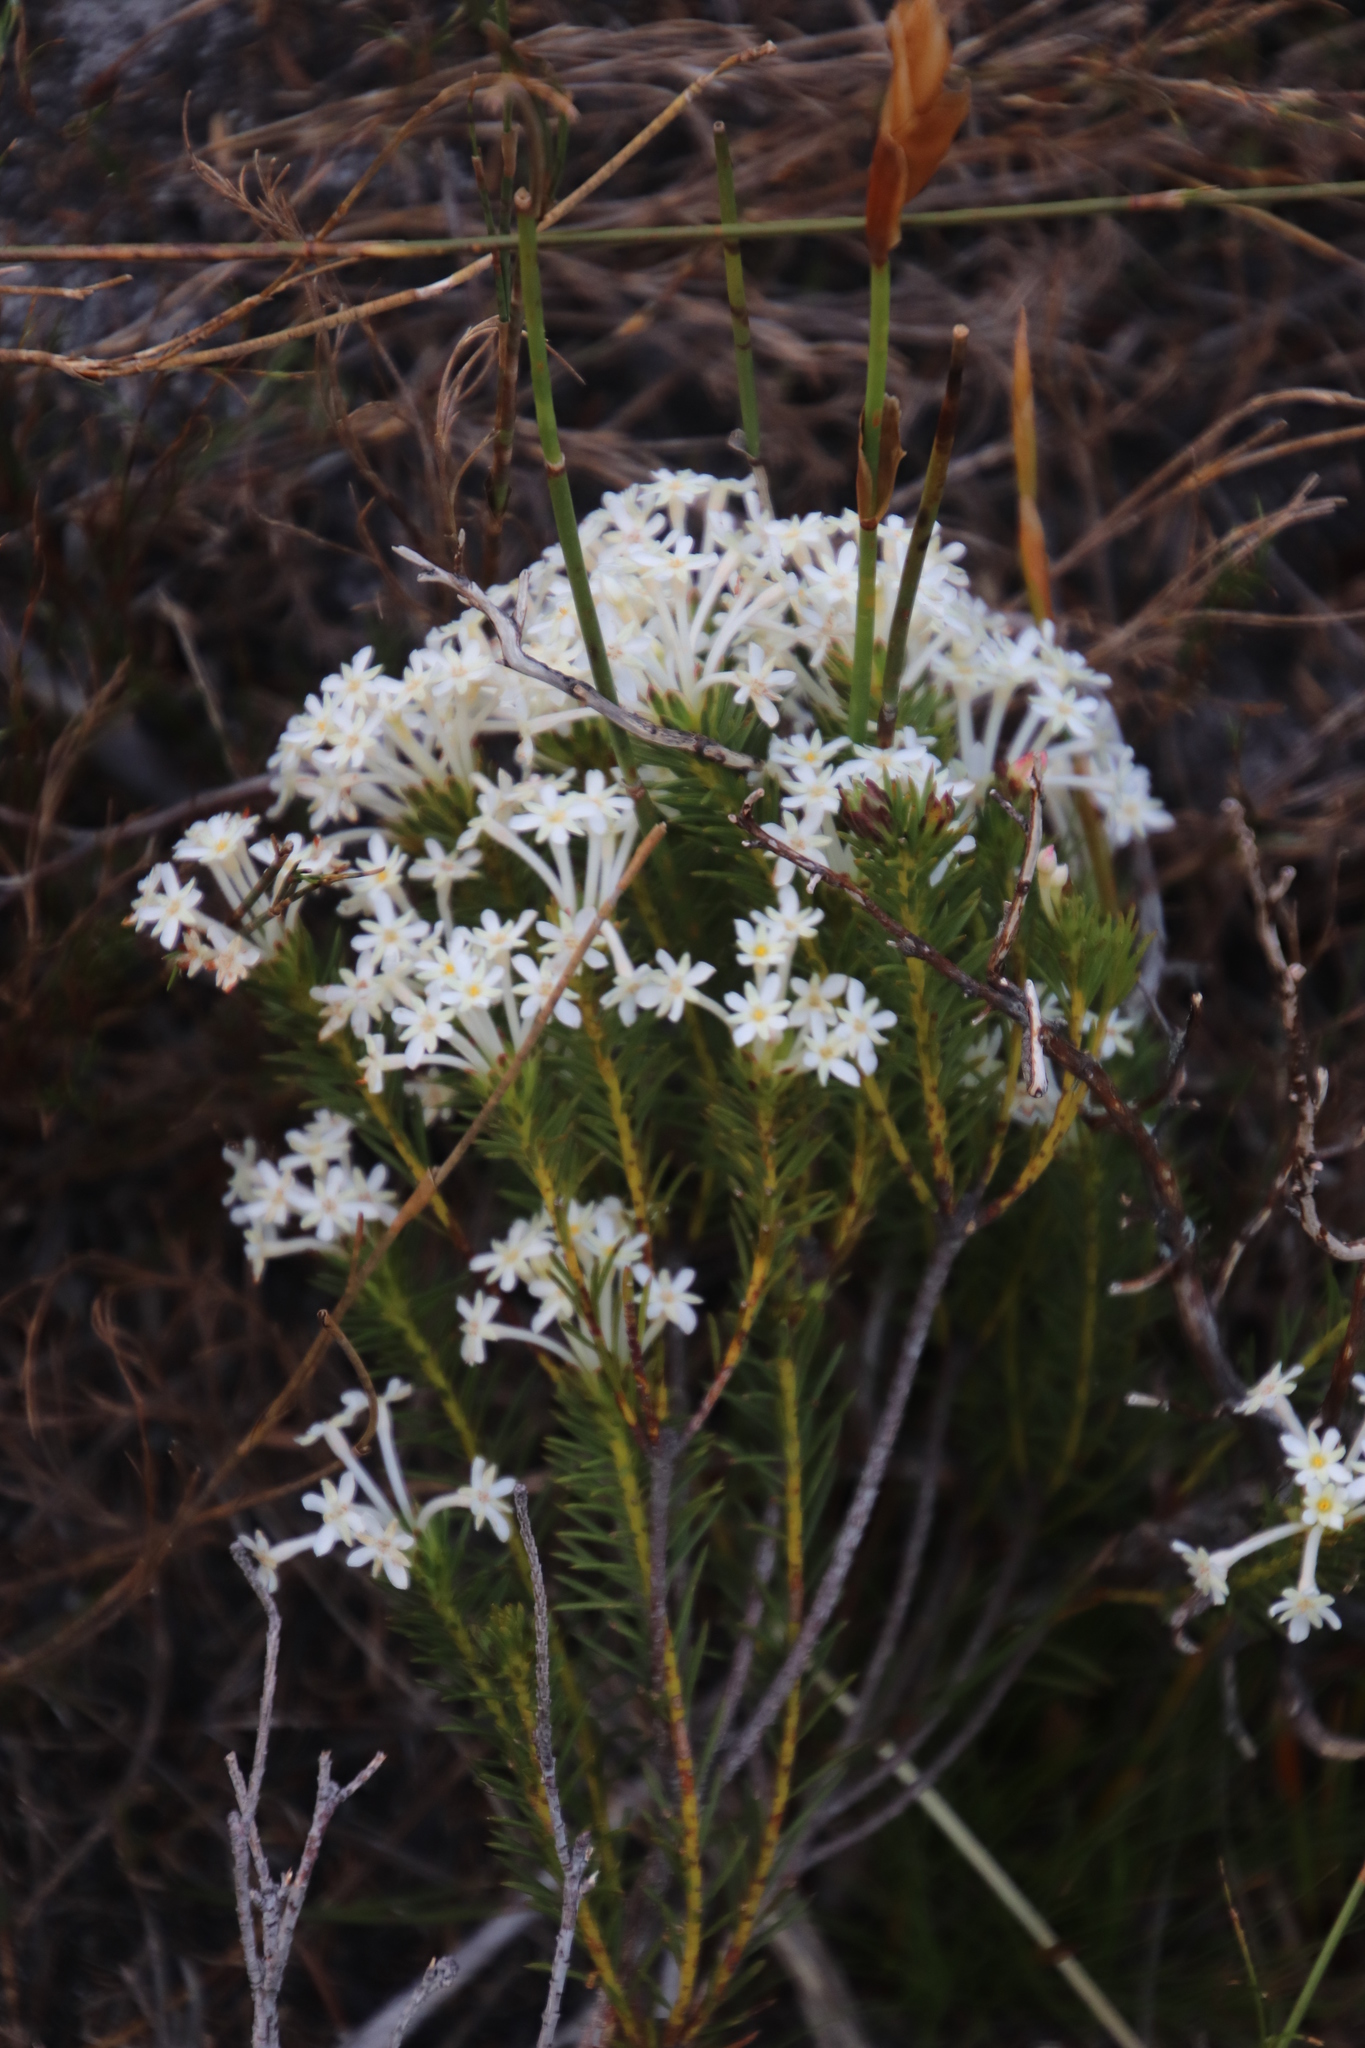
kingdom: Plantae
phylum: Tracheophyta
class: Magnoliopsida
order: Malvales
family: Thymelaeaceae
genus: Gnidia
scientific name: Gnidia pinifolia
